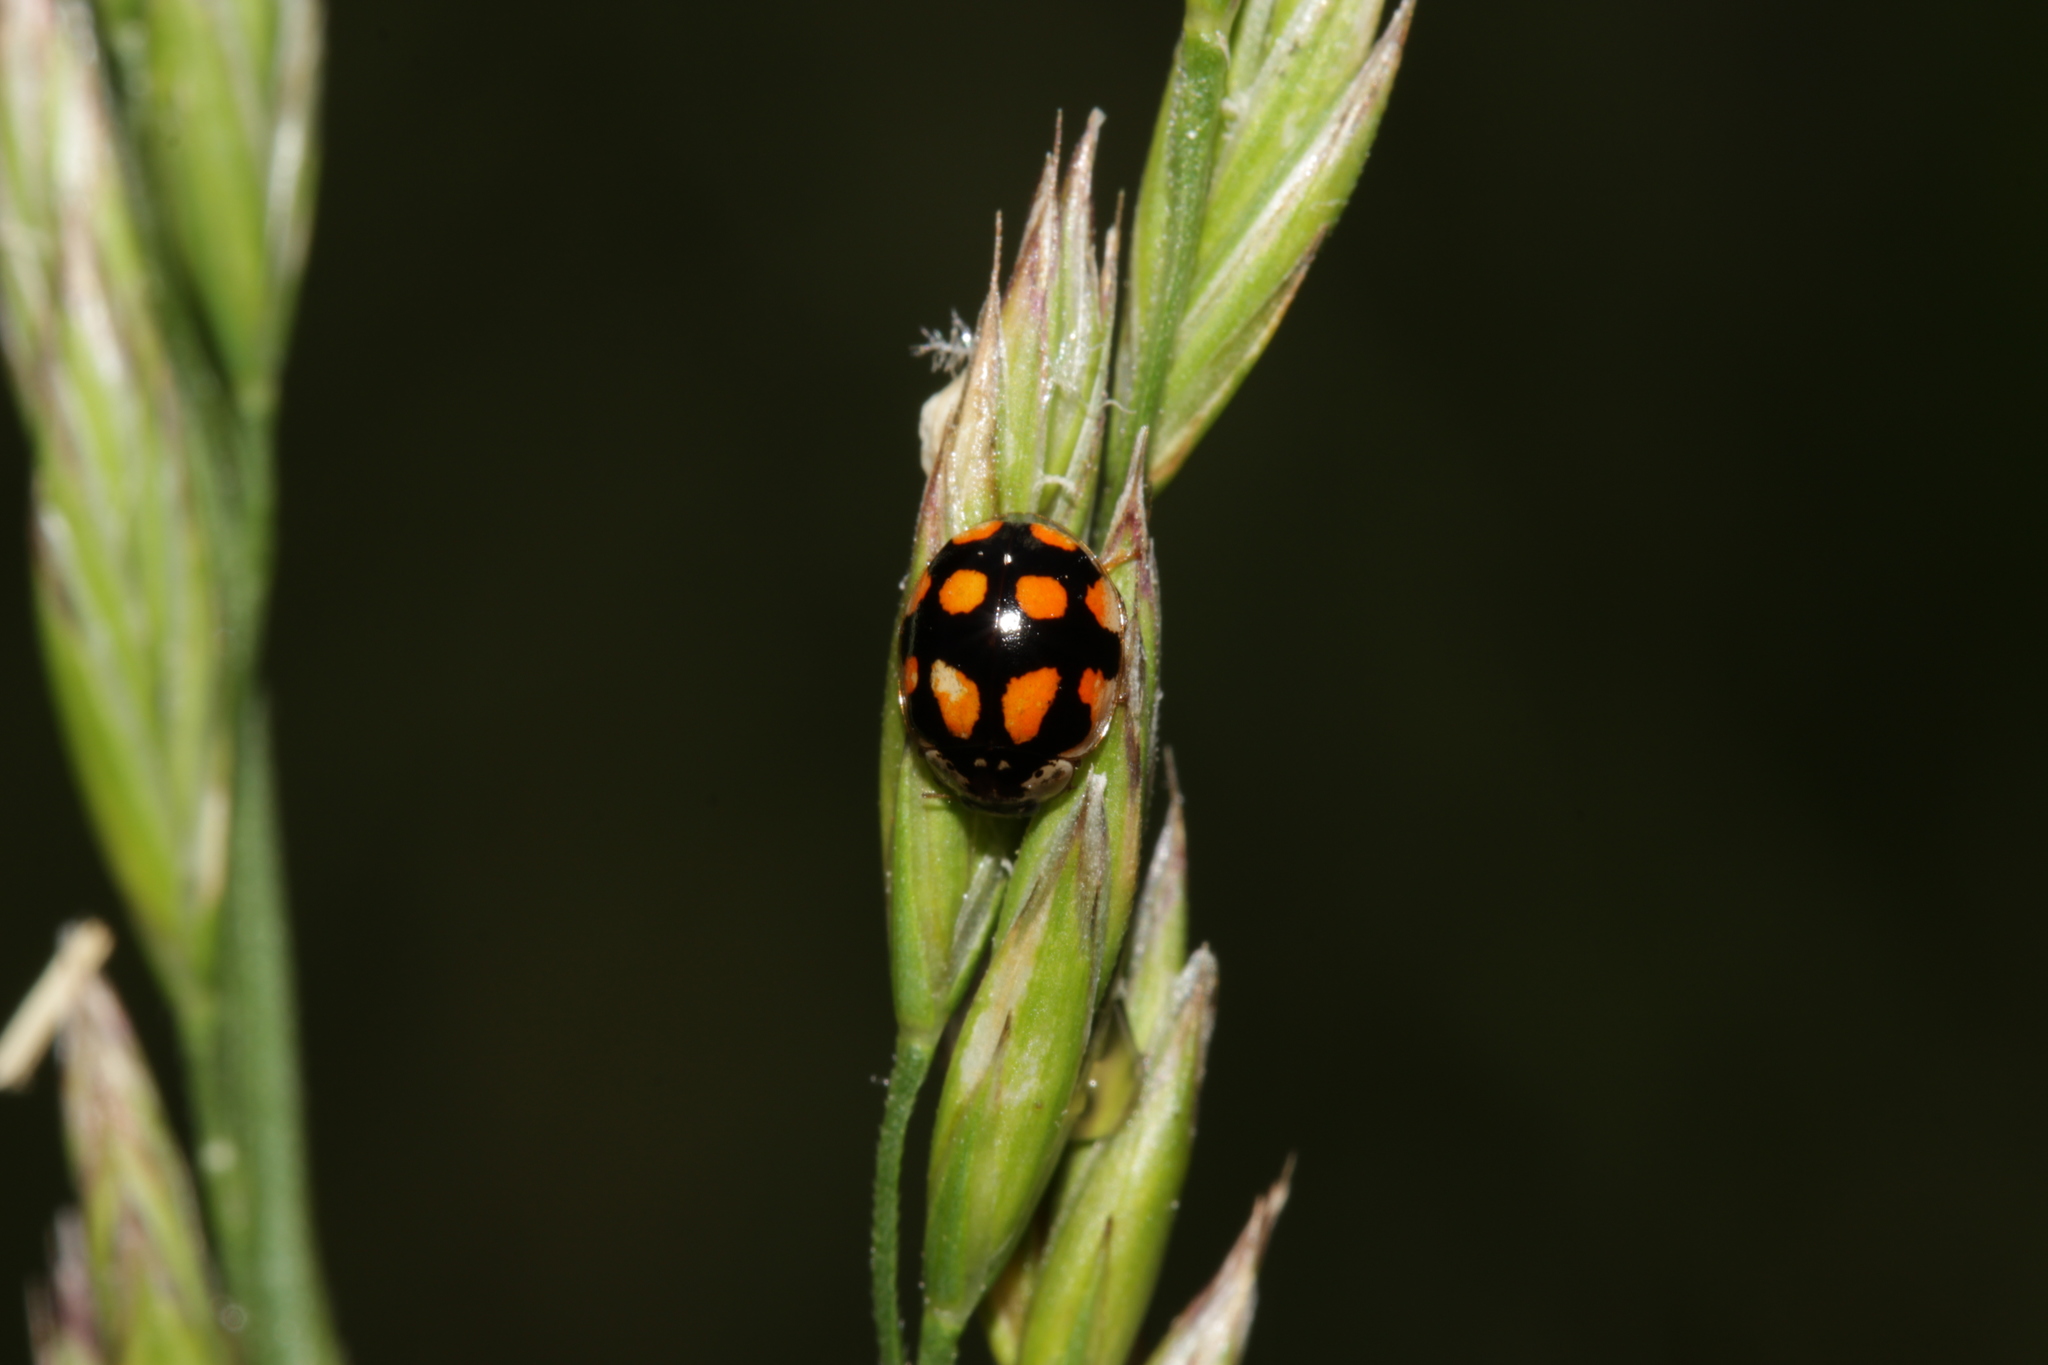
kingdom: Animalia
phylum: Arthropoda
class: Insecta
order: Coleoptera
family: Coccinellidae
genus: Adalia
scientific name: Adalia decempunctata
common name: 10-spot ladybird
